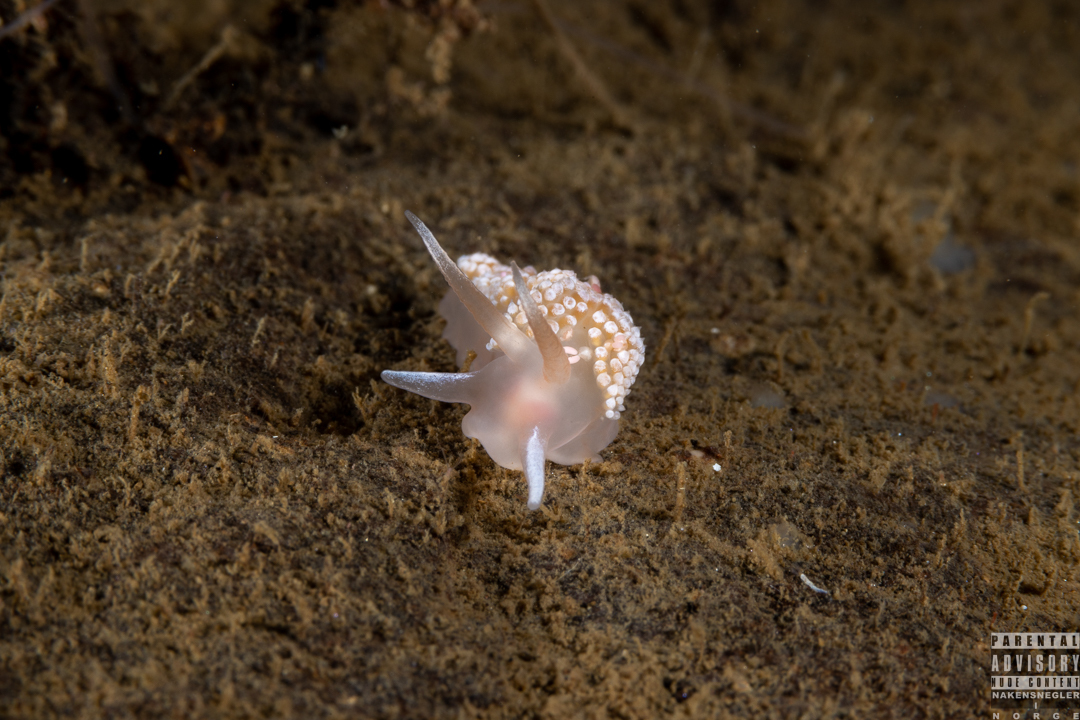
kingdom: Animalia
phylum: Mollusca
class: Gastropoda
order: Nudibranchia
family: Coryphellidae
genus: Coryphella
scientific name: Coryphella verrucosa
